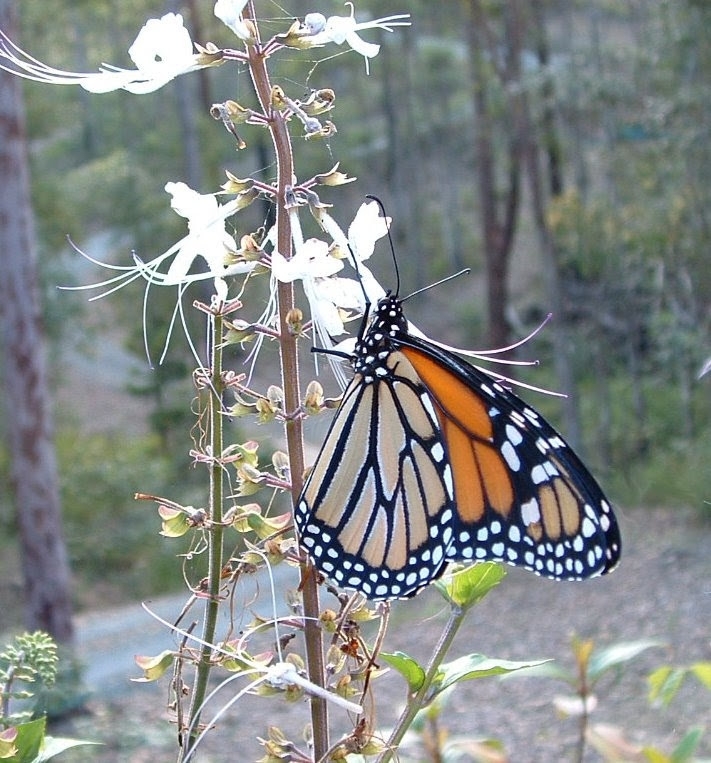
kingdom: Animalia
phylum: Arthropoda
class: Insecta
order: Lepidoptera
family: Nymphalidae
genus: Danaus
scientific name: Danaus plexippus
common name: Monarch
